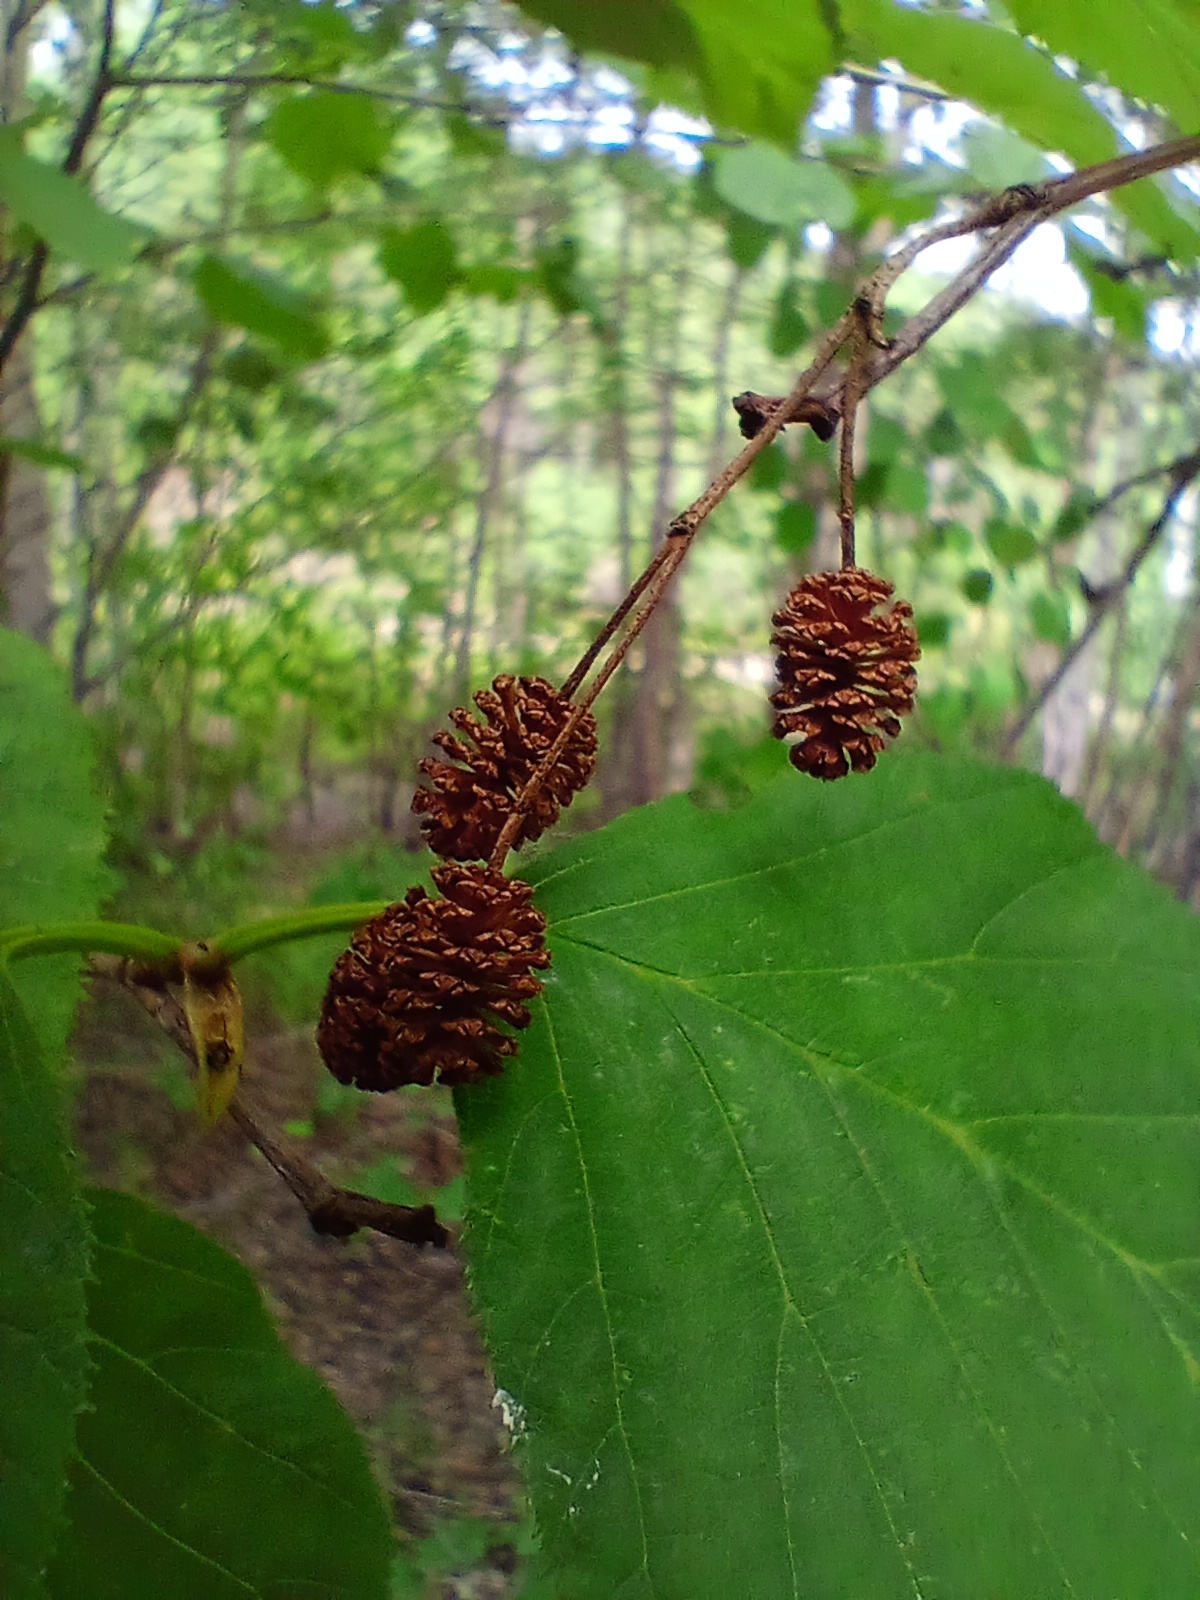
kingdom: Plantae
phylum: Tracheophyta
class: Magnoliopsida
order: Fagales
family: Betulaceae
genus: Alnus
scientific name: Alnus alnobetula
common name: Green alder
